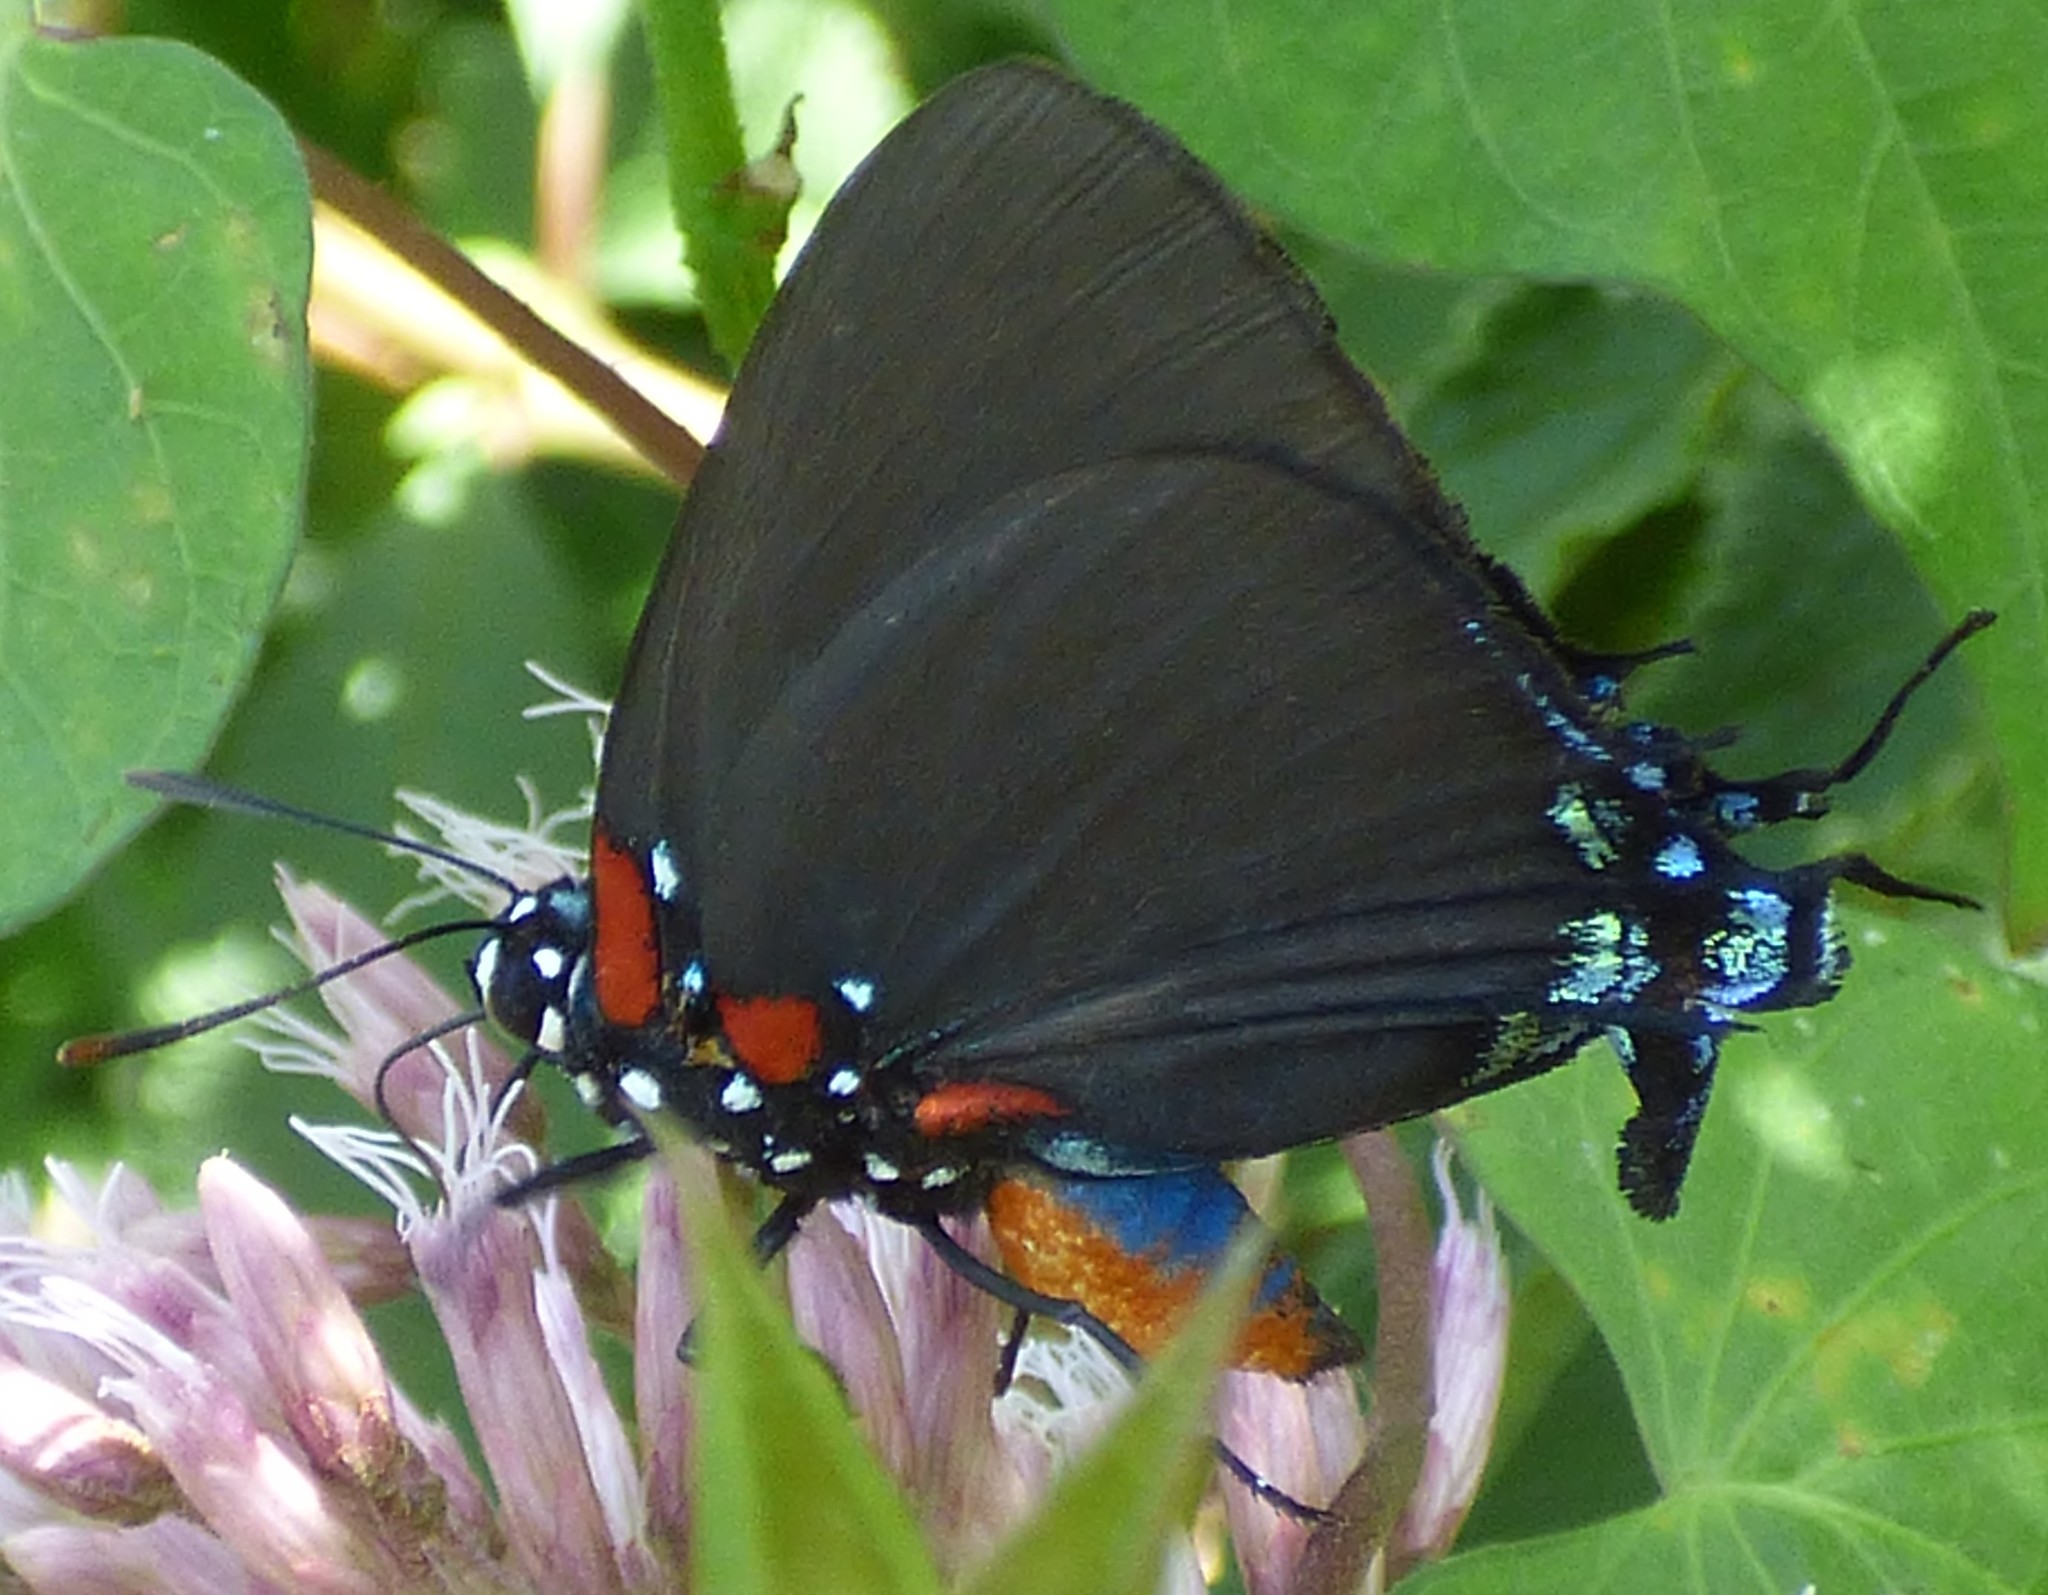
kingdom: Animalia
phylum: Arthropoda
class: Insecta
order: Lepidoptera
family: Lycaenidae
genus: Atlides
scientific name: Atlides halesus
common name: Great purple hairstreak
